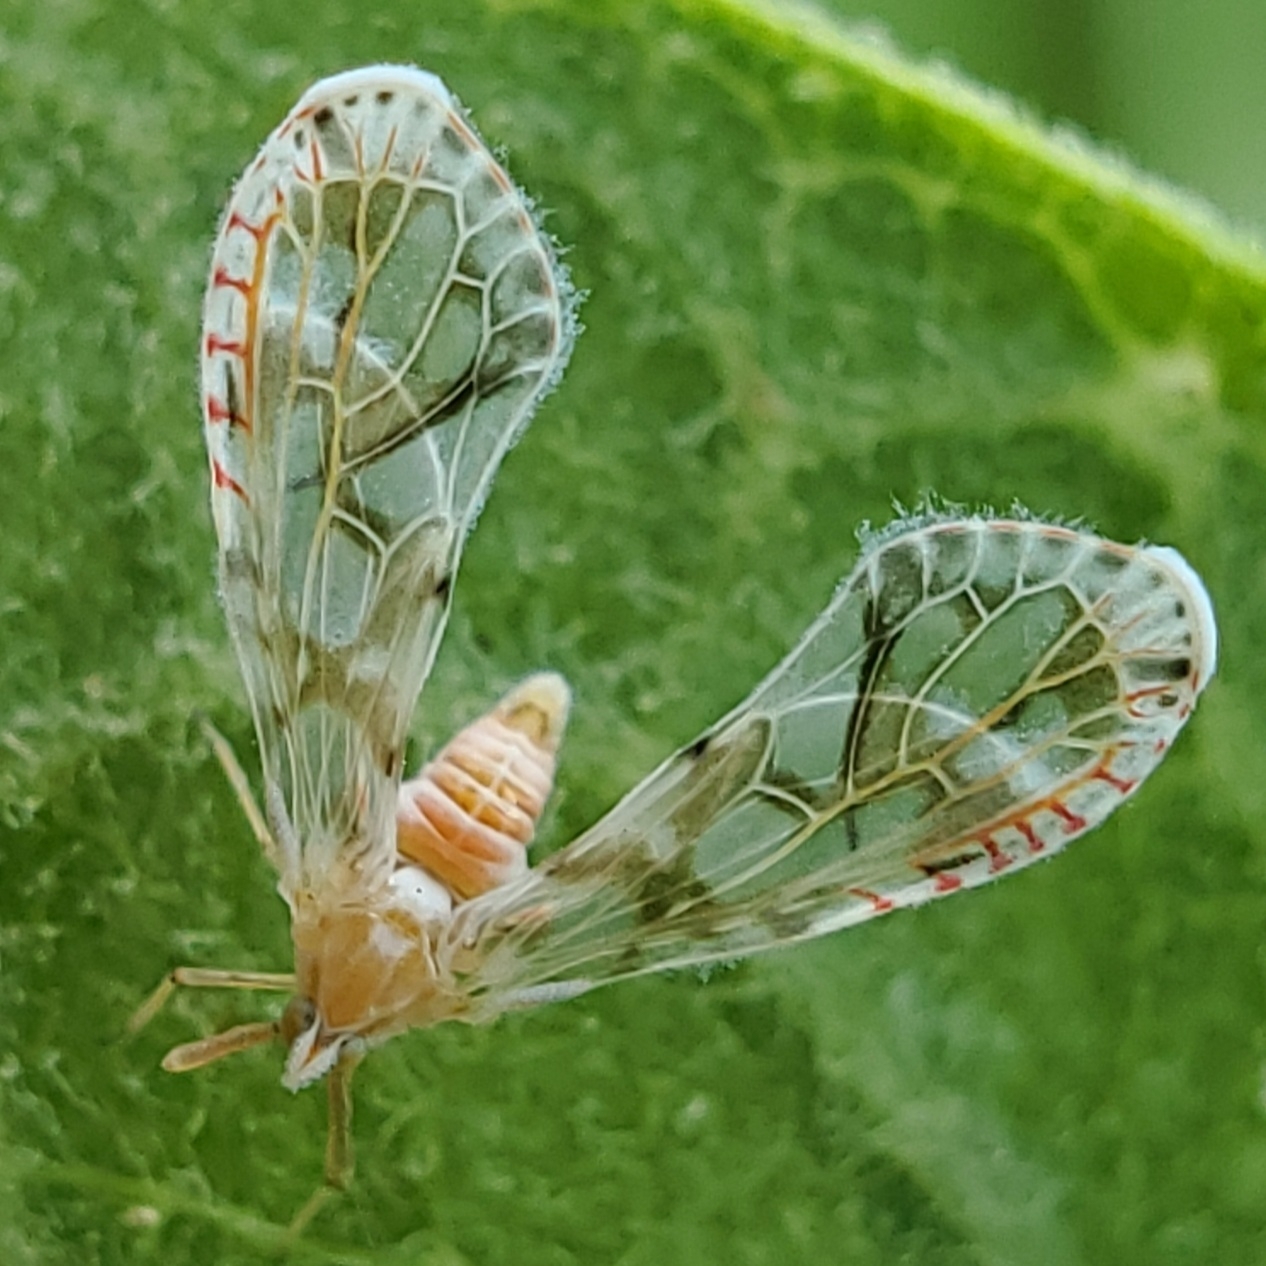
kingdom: Animalia
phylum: Arthropoda
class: Insecta
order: Hemiptera
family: Derbidae
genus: Anotia
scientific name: Anotia kirkaldyi
